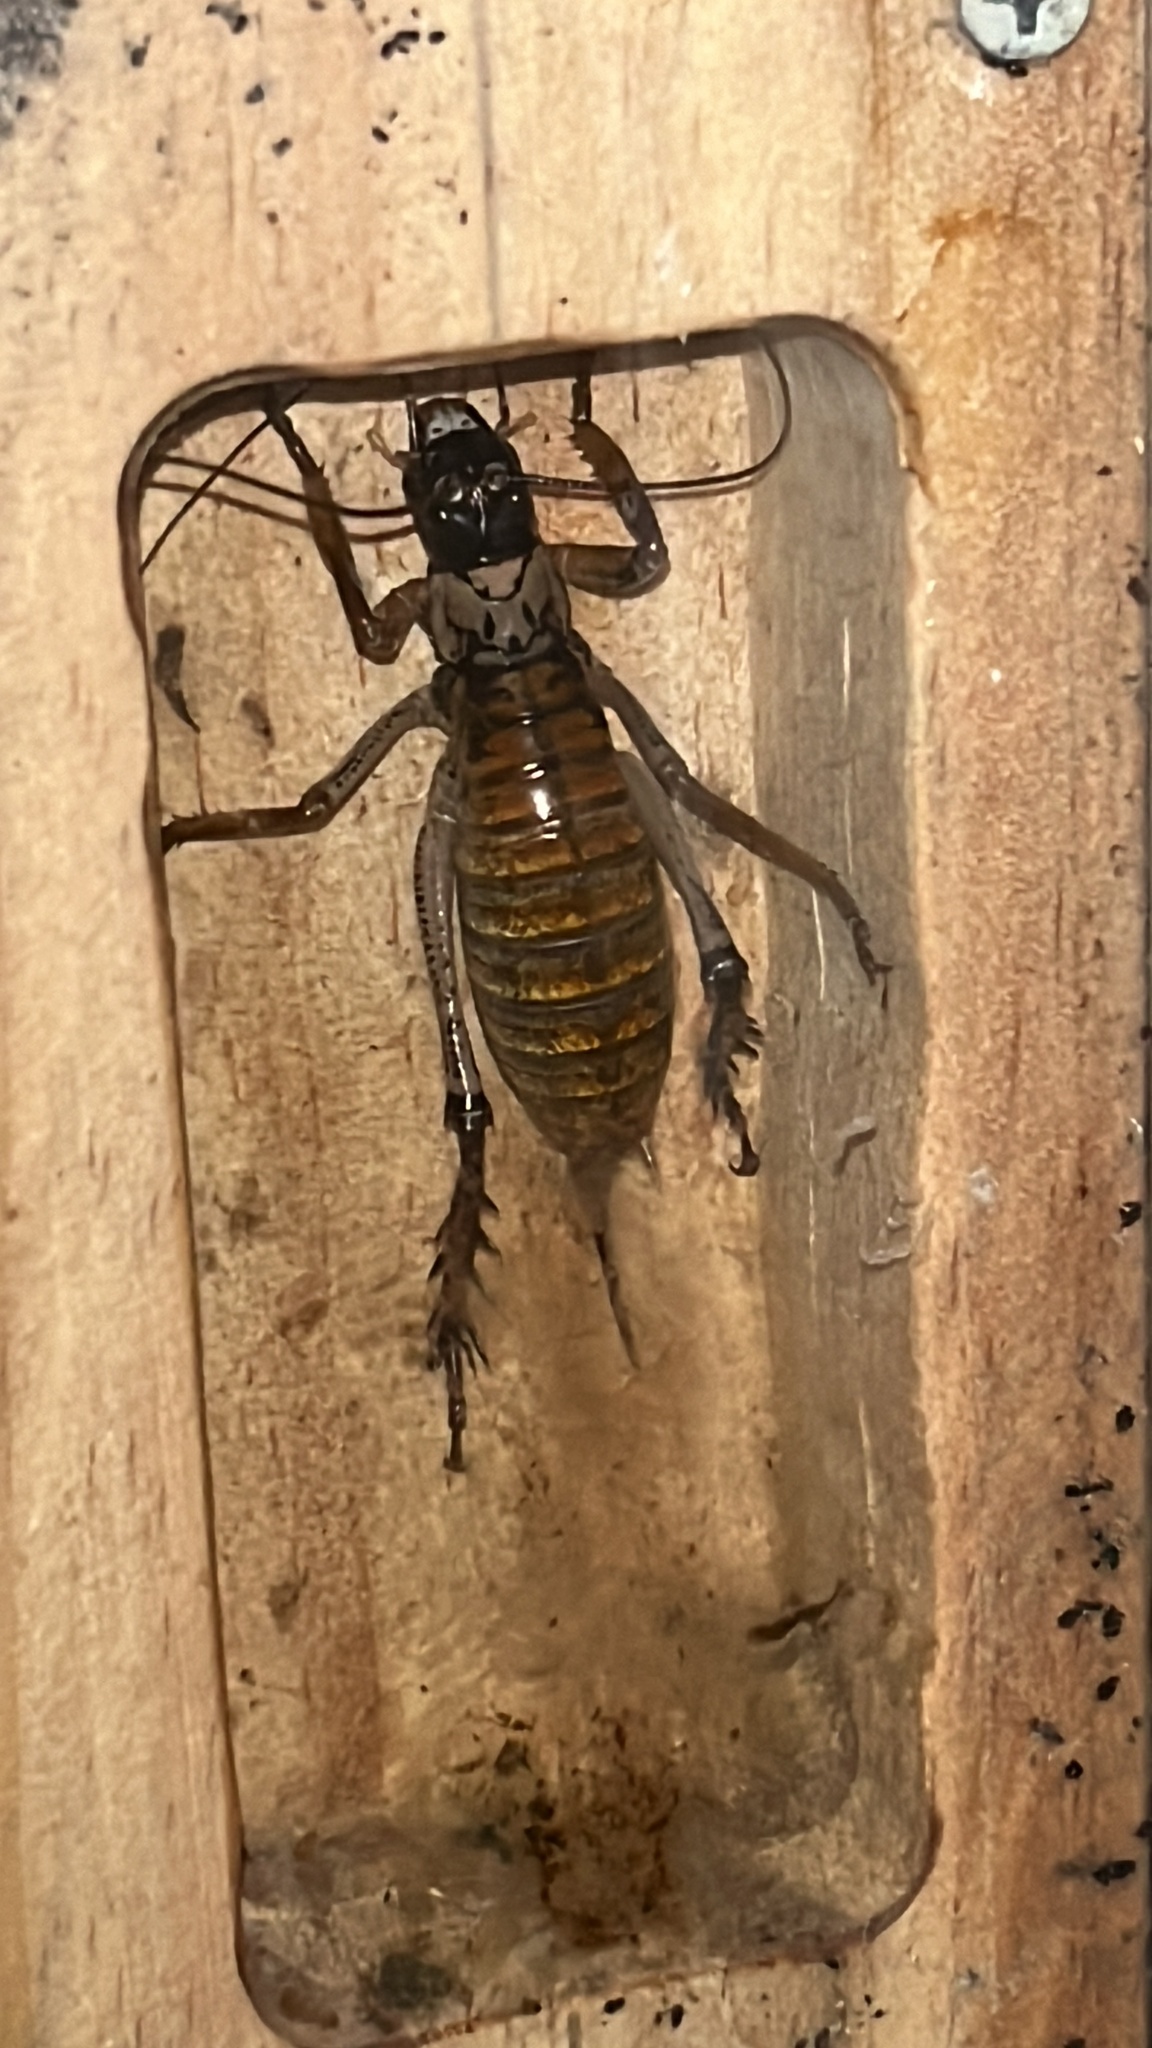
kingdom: Animalia
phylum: Arthropoda
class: Insecta
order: Orthoptera
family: Anostostomatidae
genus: Hemideina
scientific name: Hemideina thoracica
